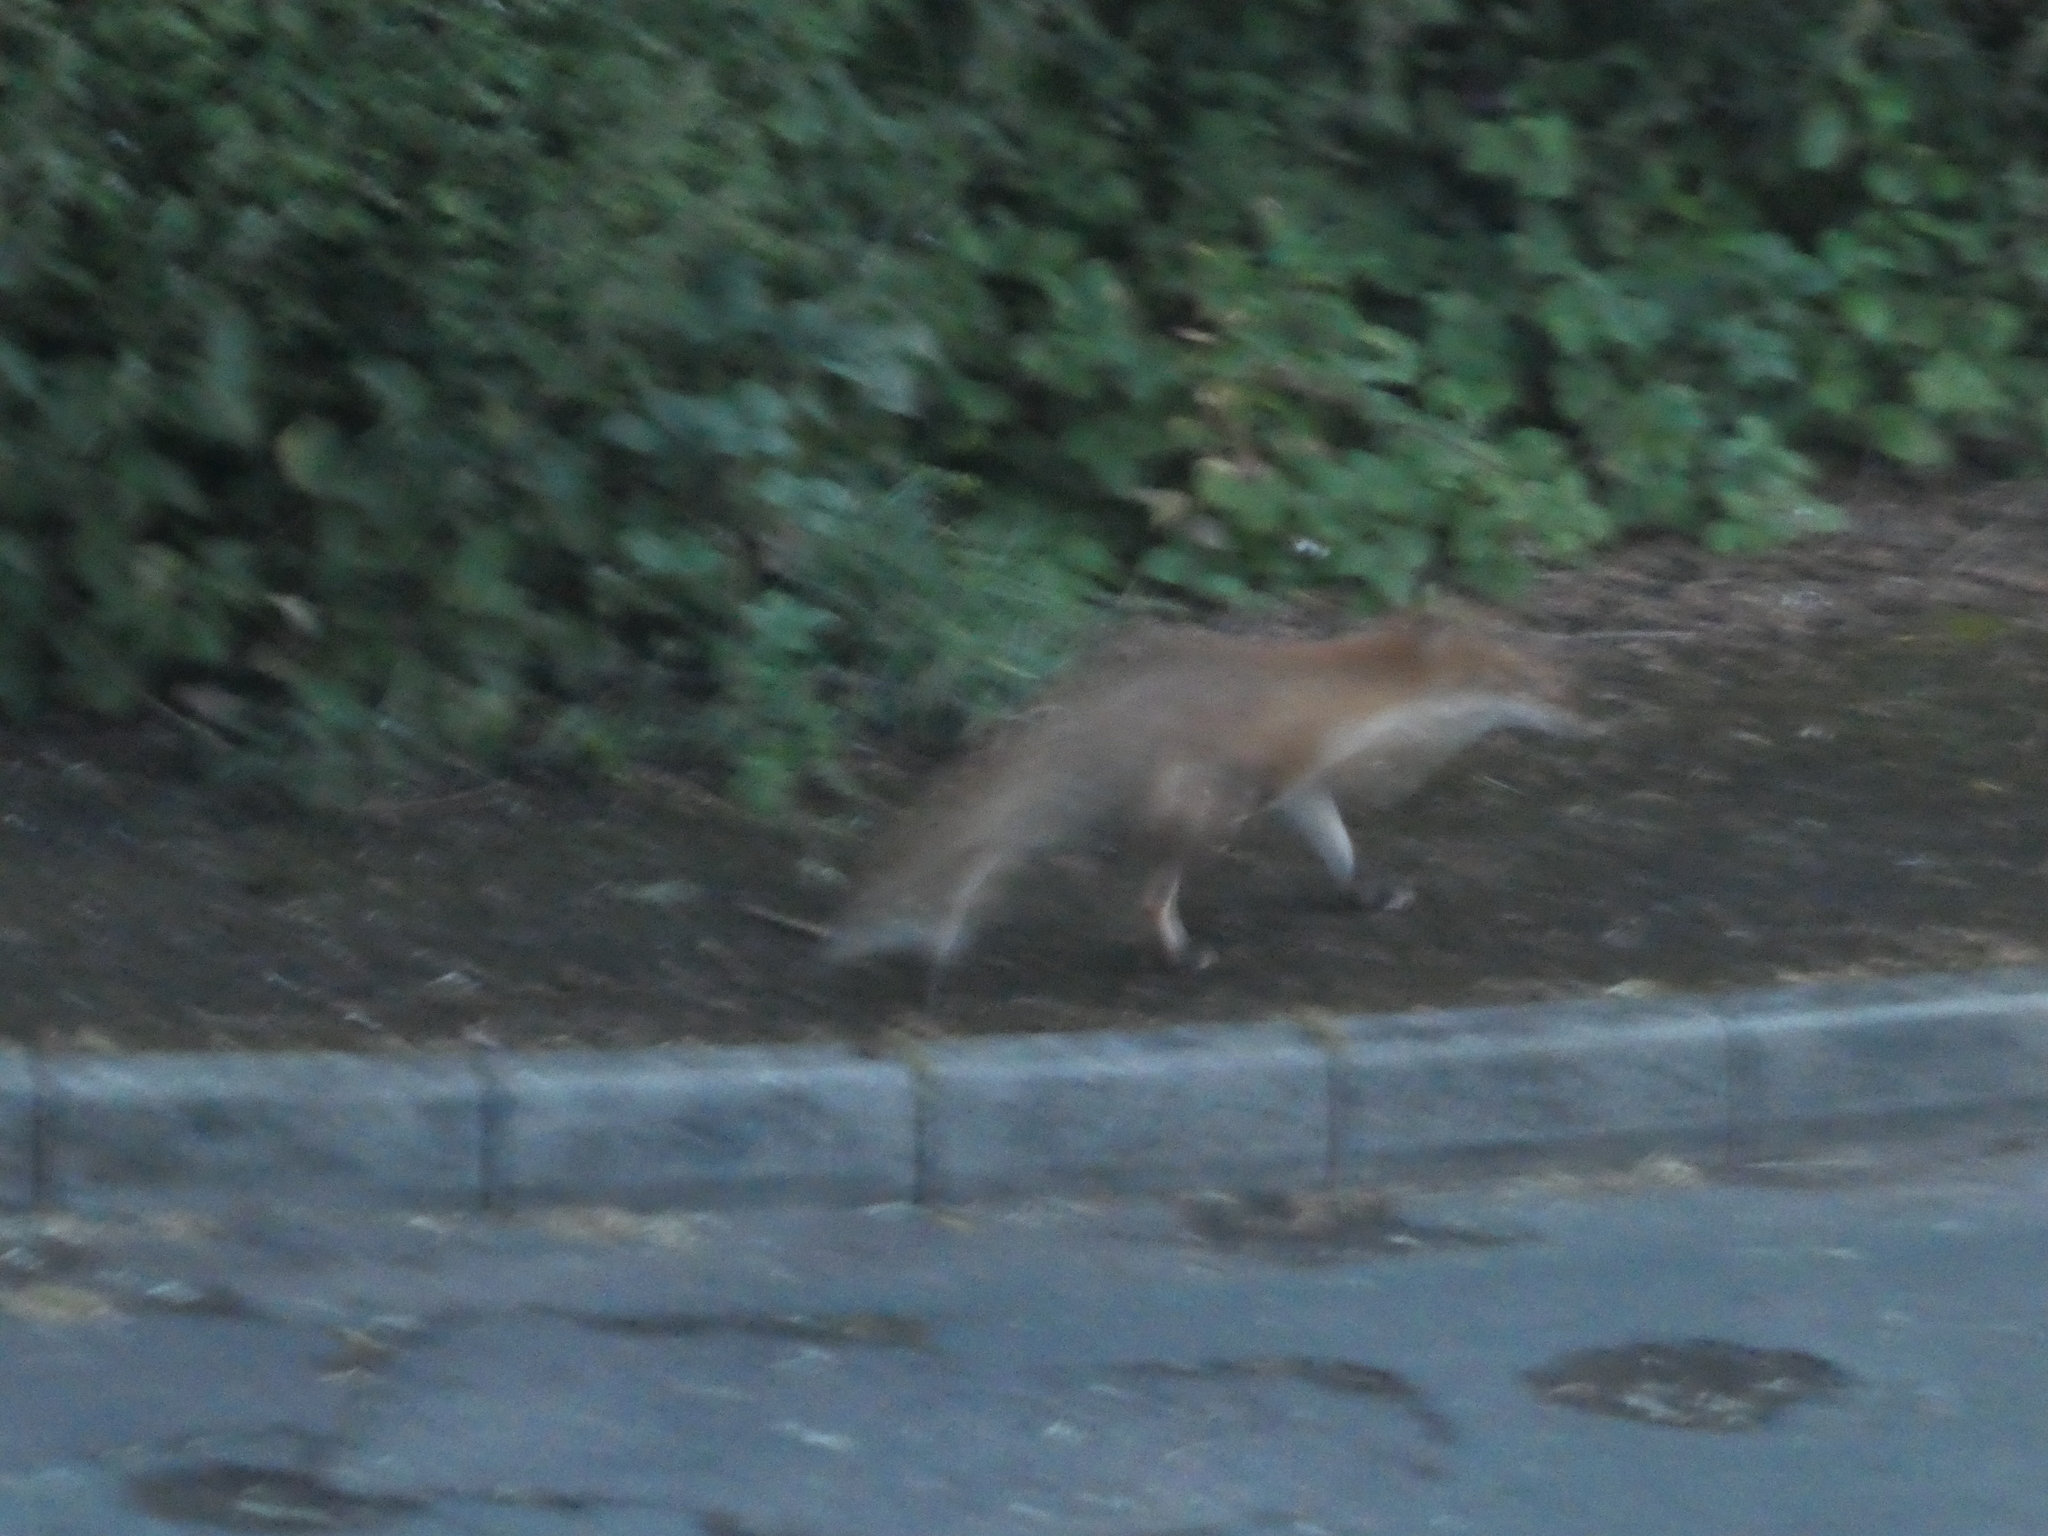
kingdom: Animalia
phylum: Chordata
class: Mammalia
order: Carnivora
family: Canidae
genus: Vulpes
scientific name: Vulpes vulpes
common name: Red fox
